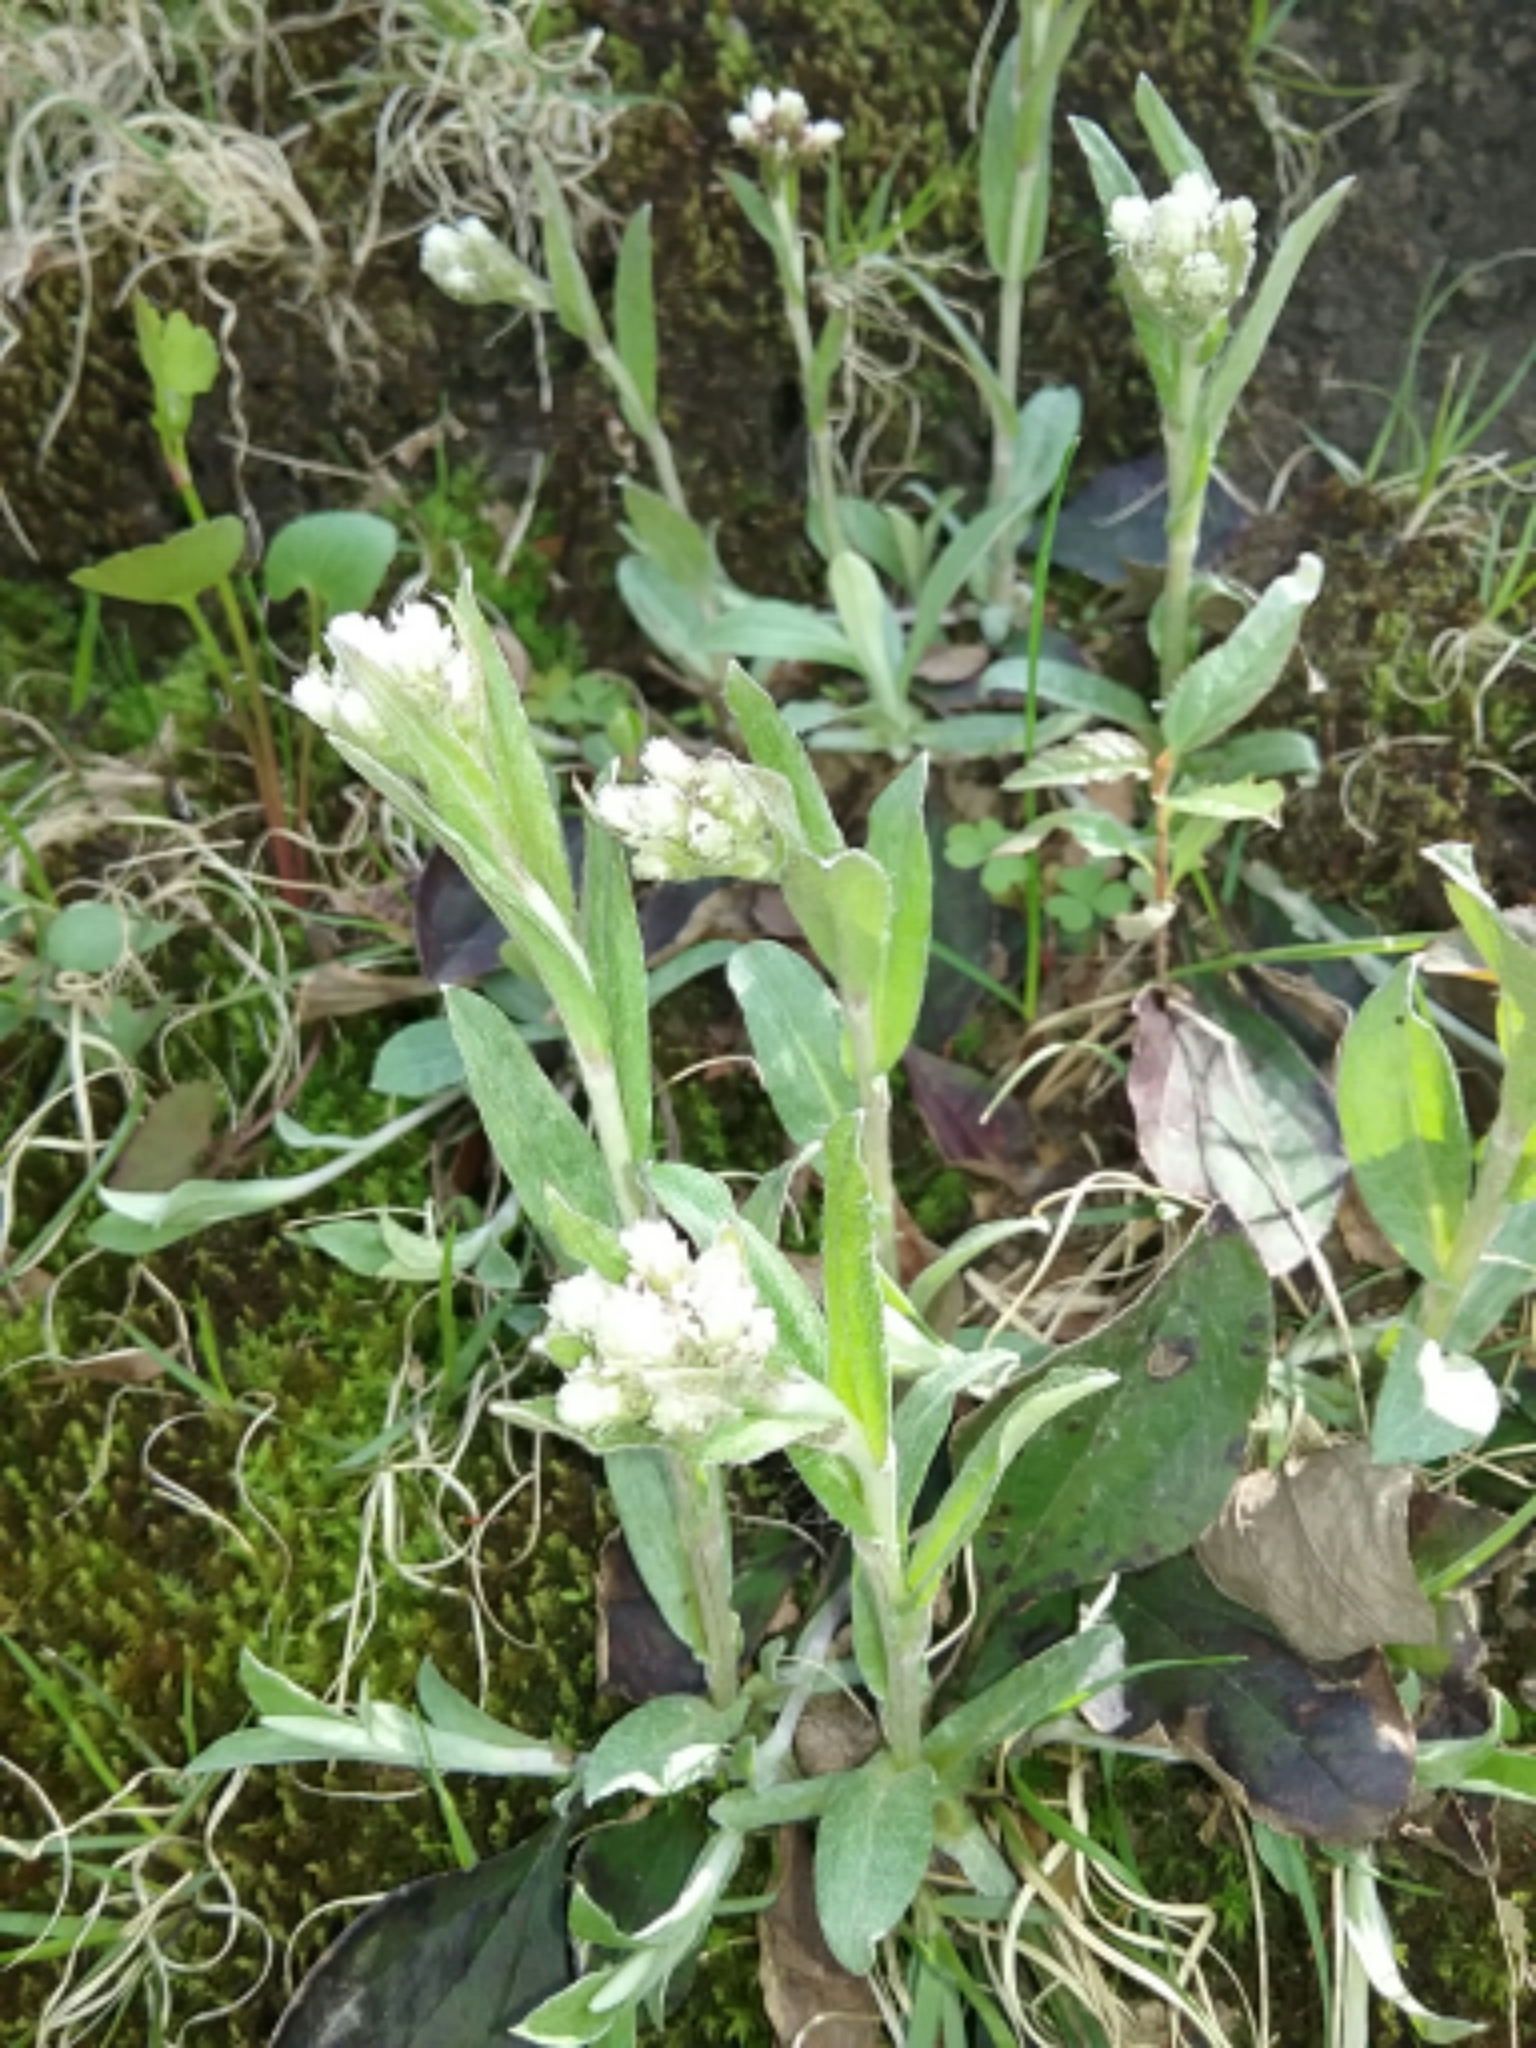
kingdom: Plantae
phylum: Tracheophyta
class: Magnoliopsida
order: Asterales
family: Asteraceae
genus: Antennaria
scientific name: Antennaria neglecta
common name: Field pussytoes
